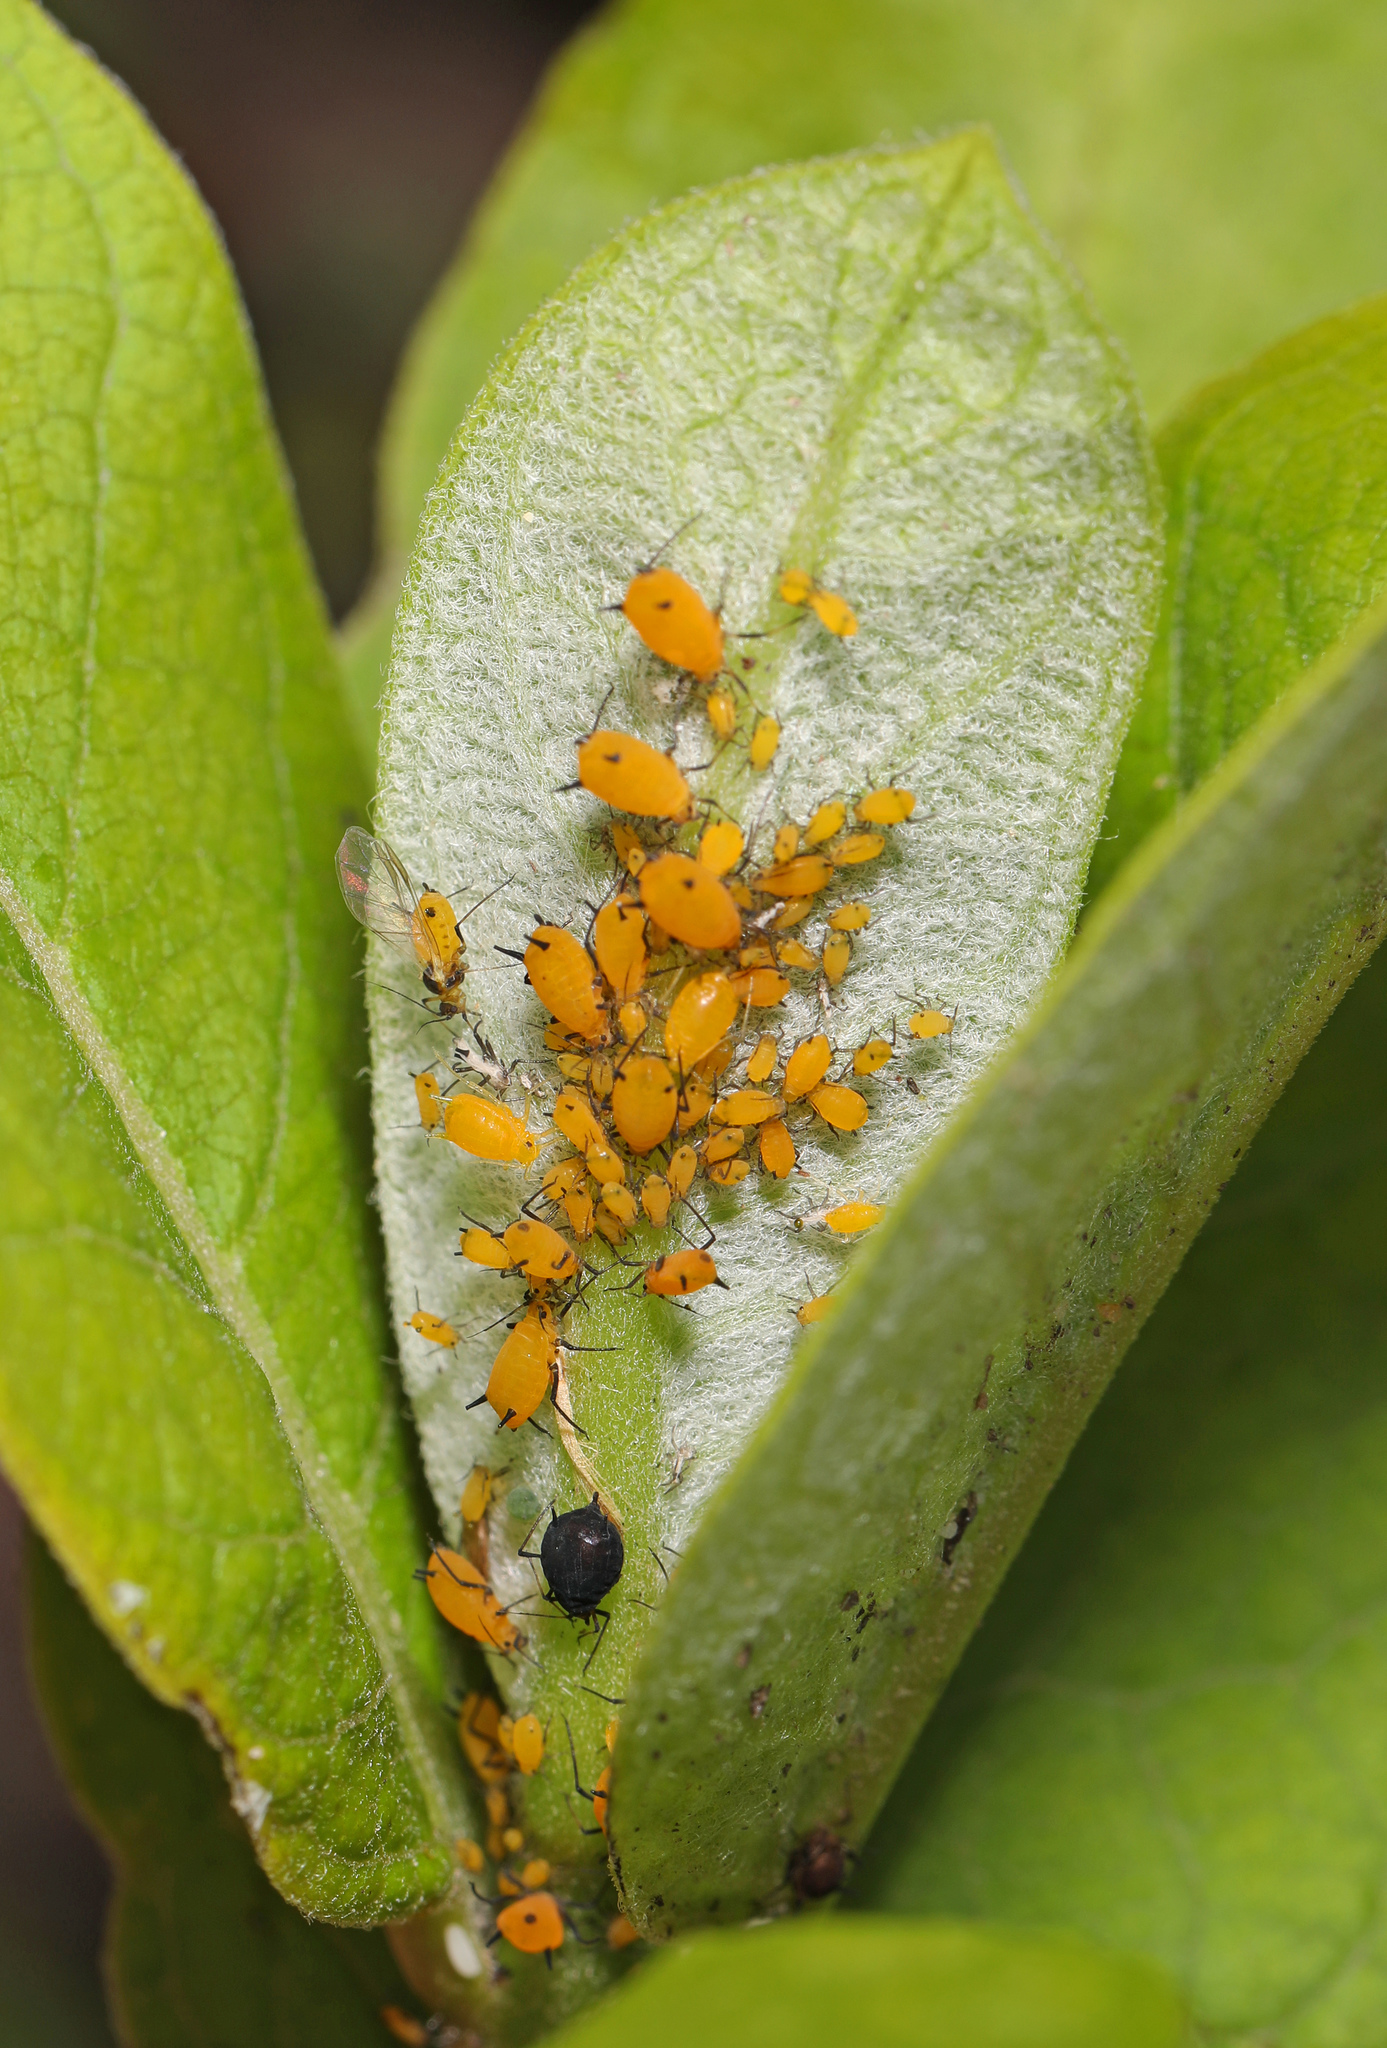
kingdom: Animalia
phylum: Arthropoda
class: Insecta
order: Hemiptera
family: Aphididae
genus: Aphis
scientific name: Aphis nerii
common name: Oleander aphid
